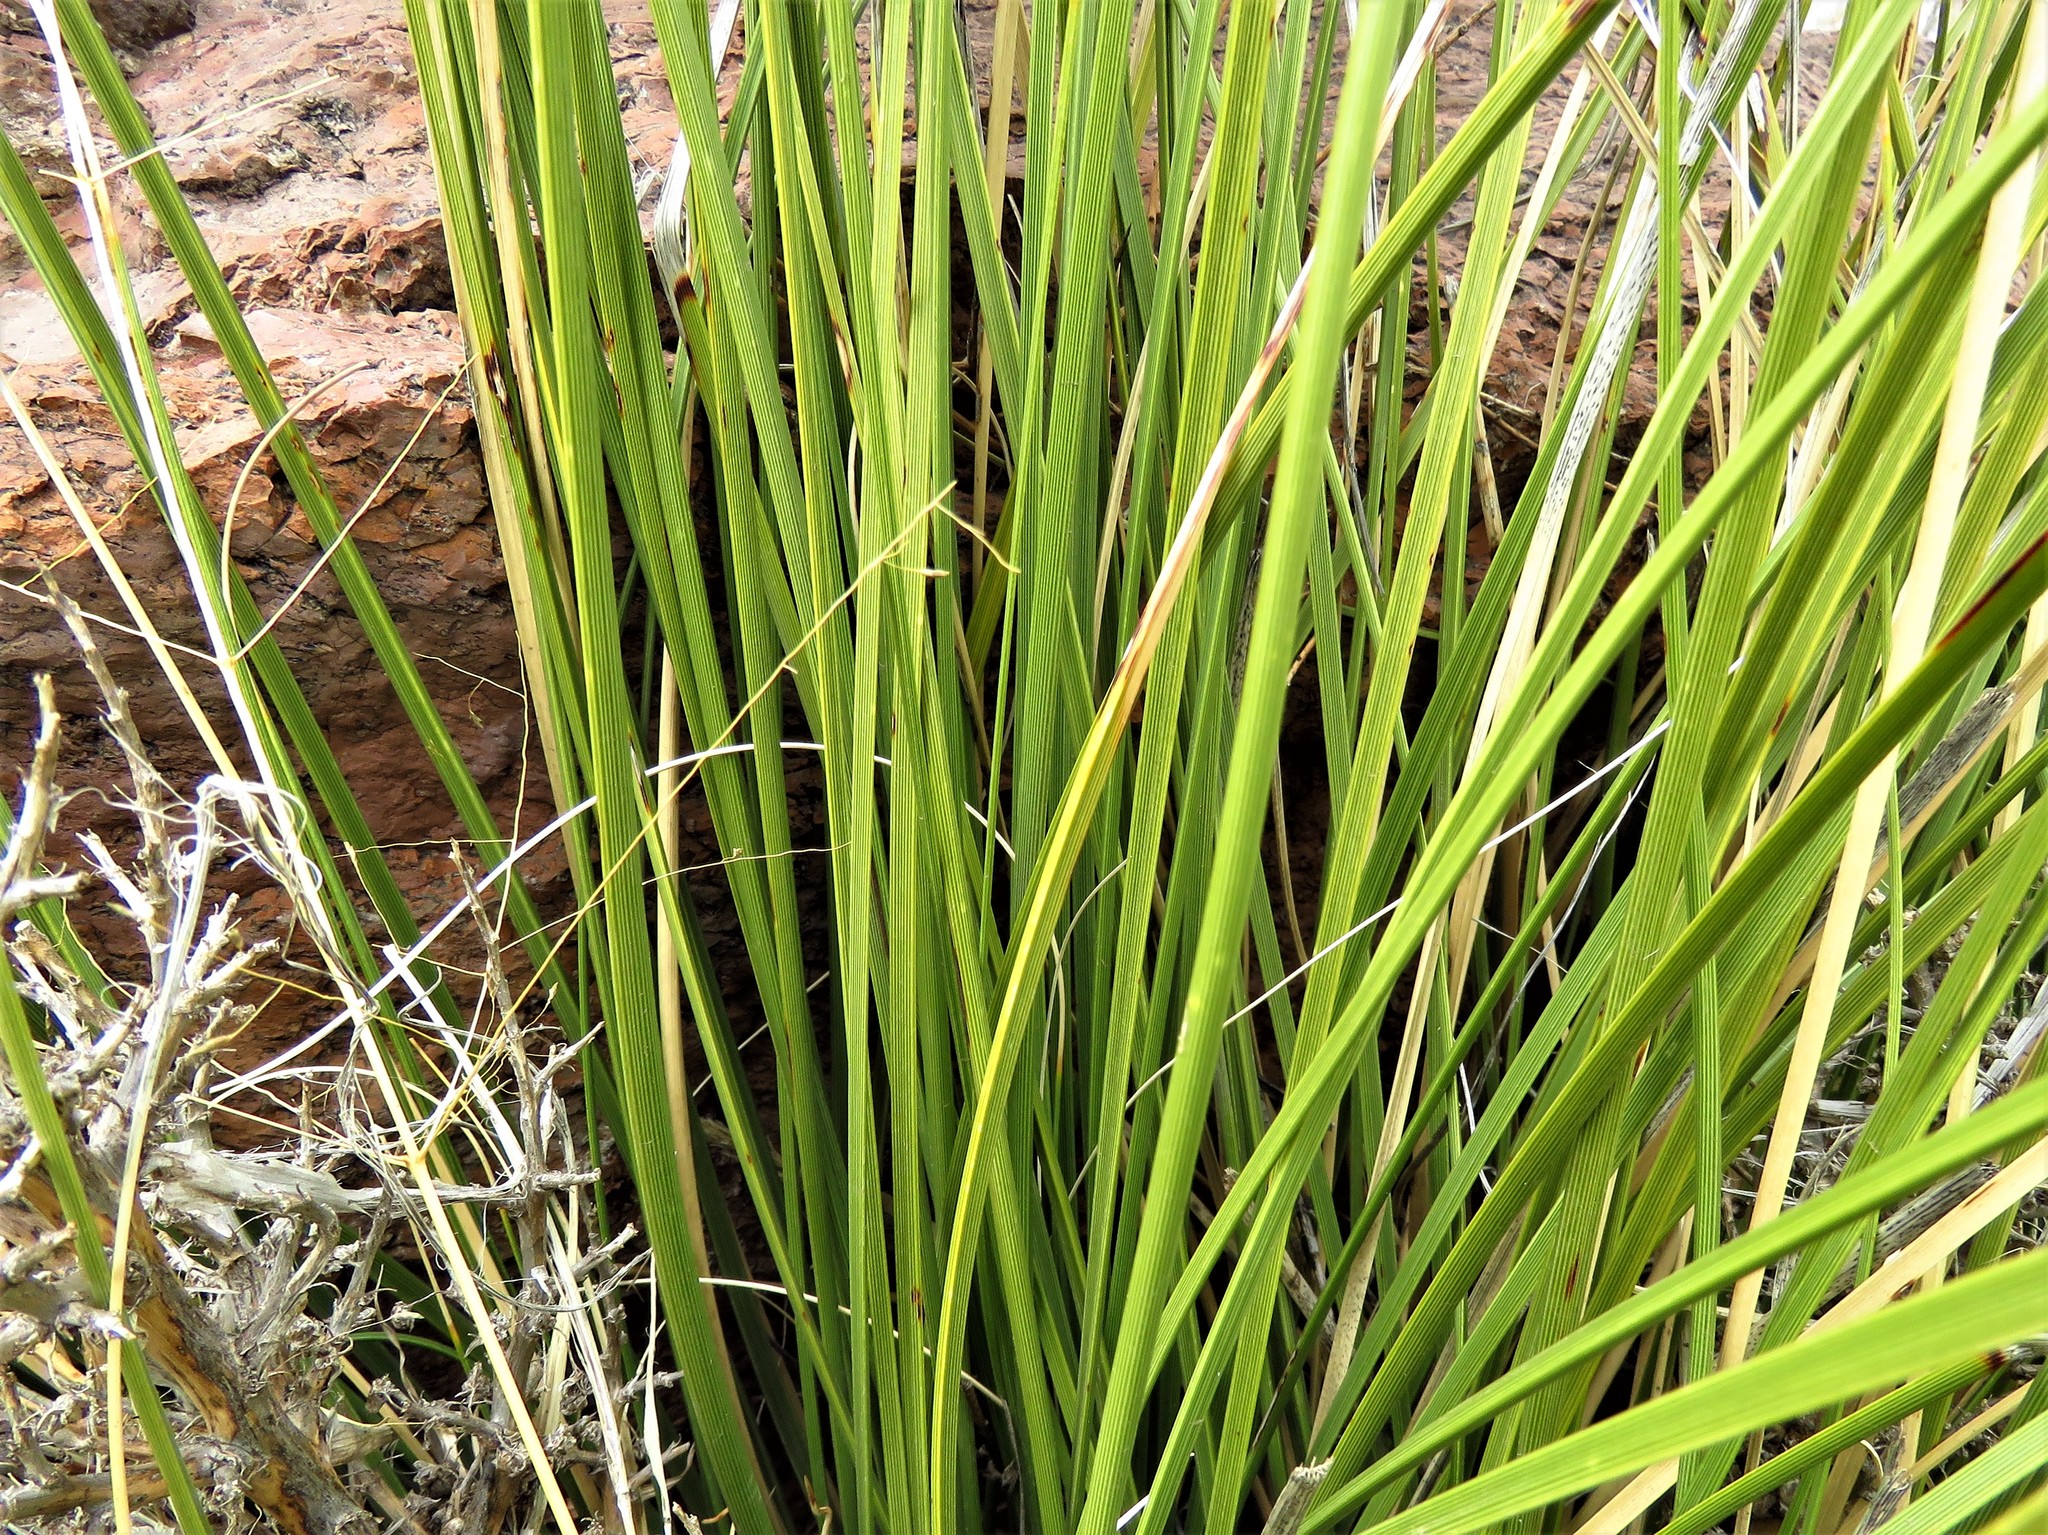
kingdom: Plantae
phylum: Tracheophyta
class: Liliopsida
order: Asparagales
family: Asparagaceae
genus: Nolina
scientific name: Nolina texana
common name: Texas sacahuiste
